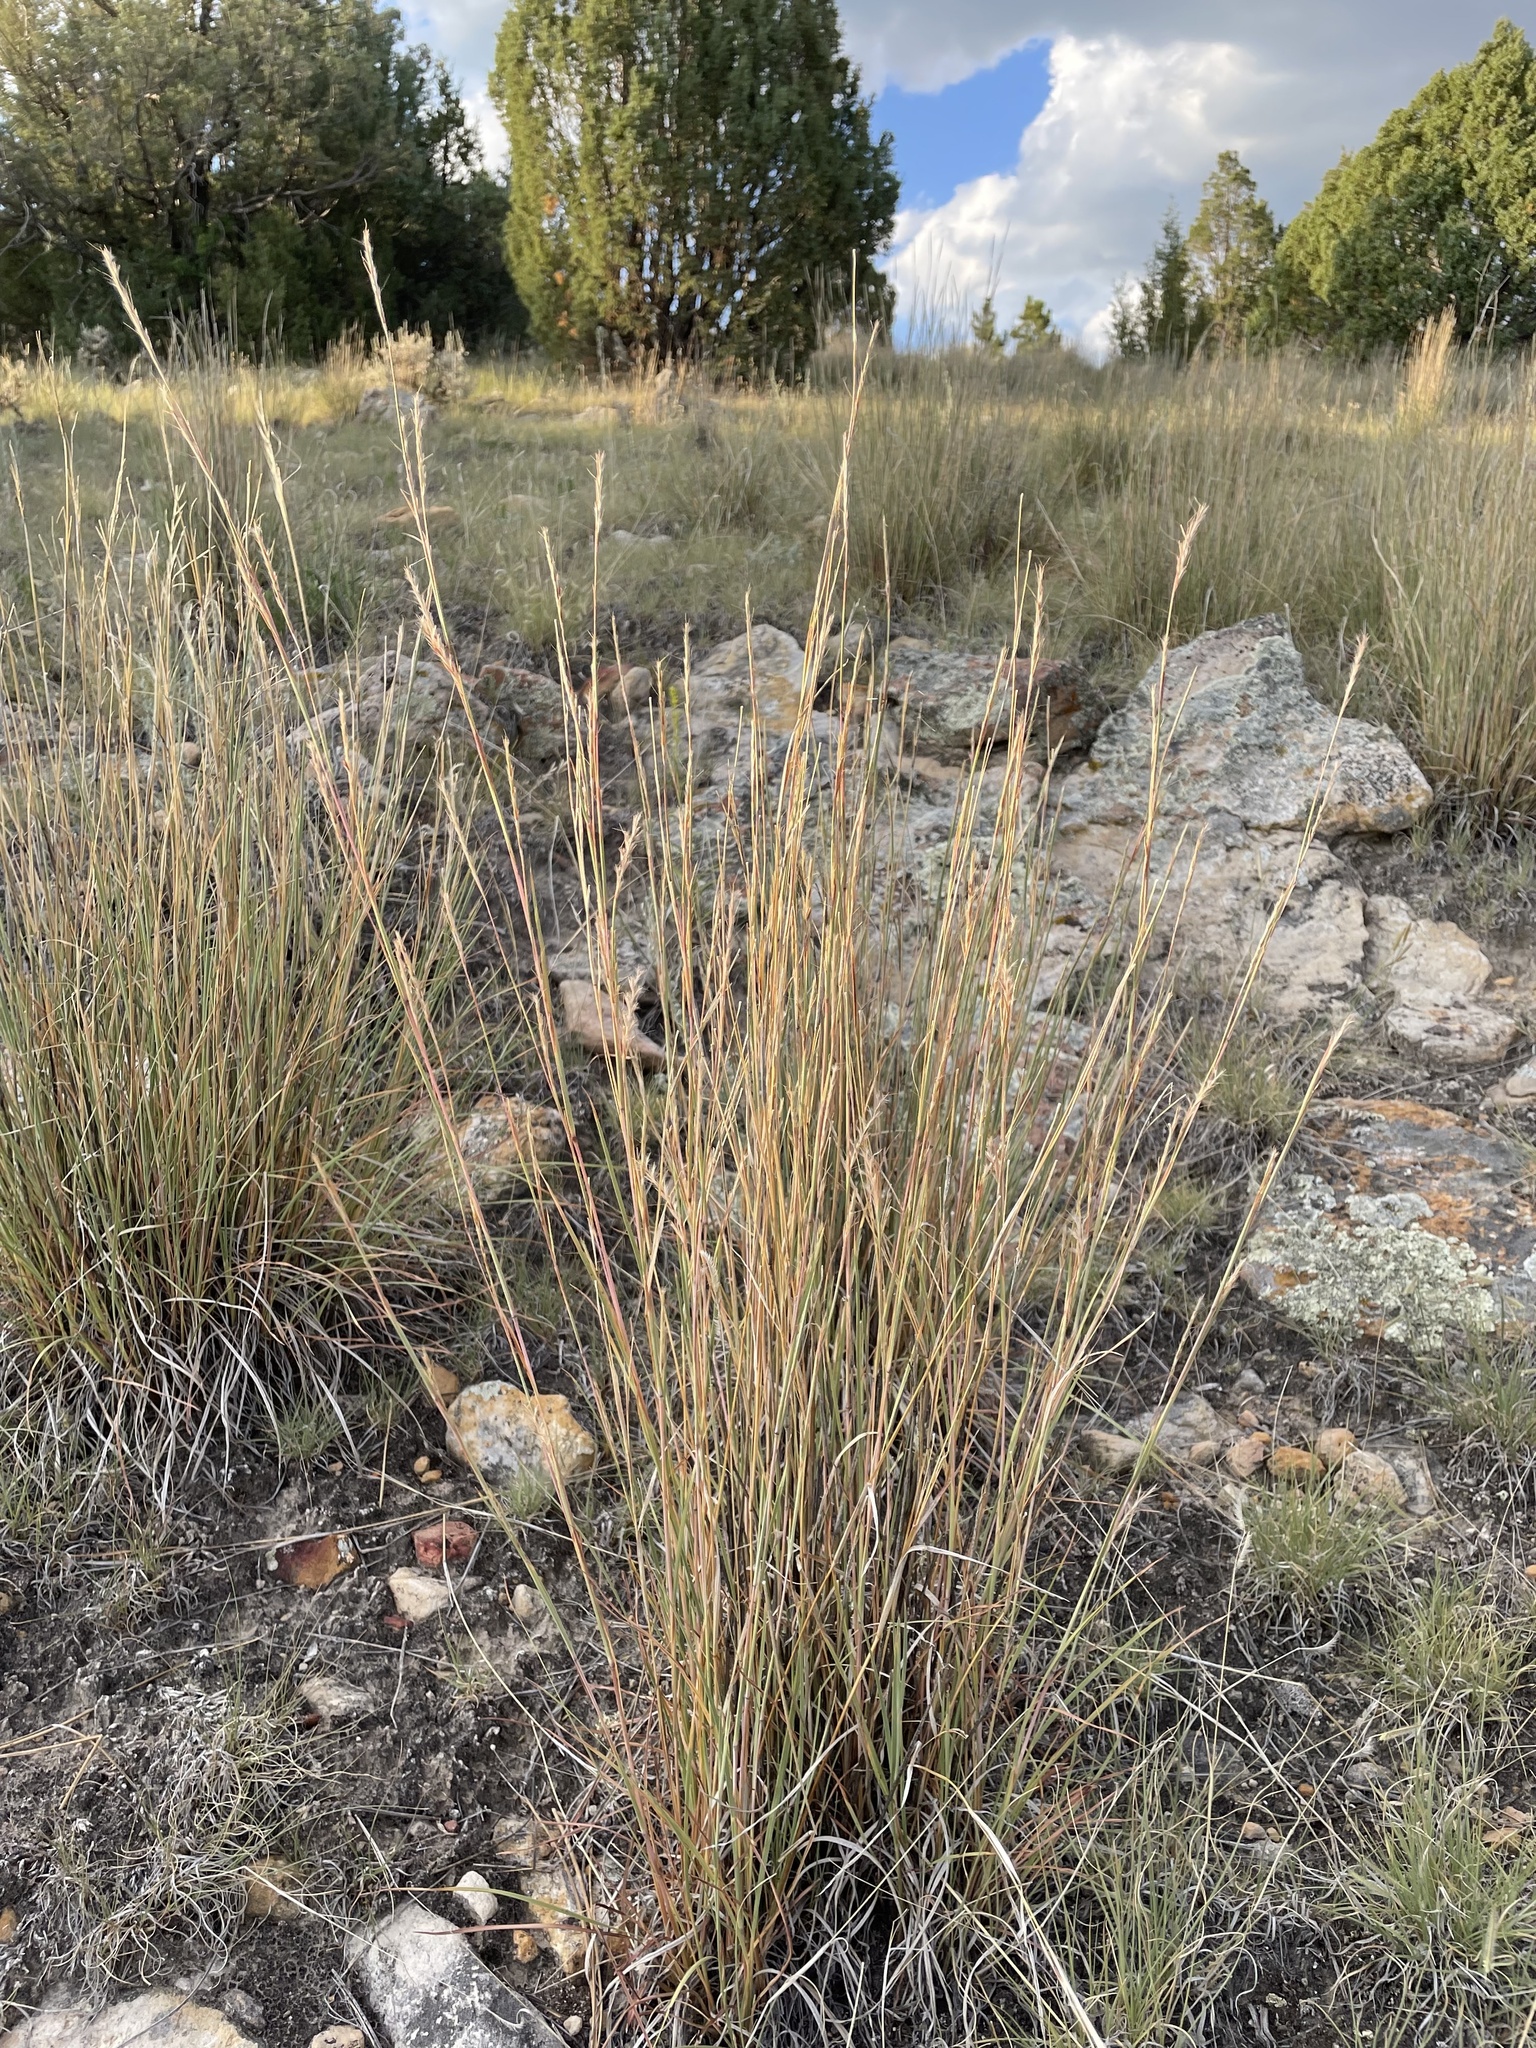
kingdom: Plantae
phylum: Tracheophyta
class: Liliopsida
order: Poales
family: Poaceae
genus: Schizachyrium
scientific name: Schizachyrium scoparium
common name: Little bluestem
